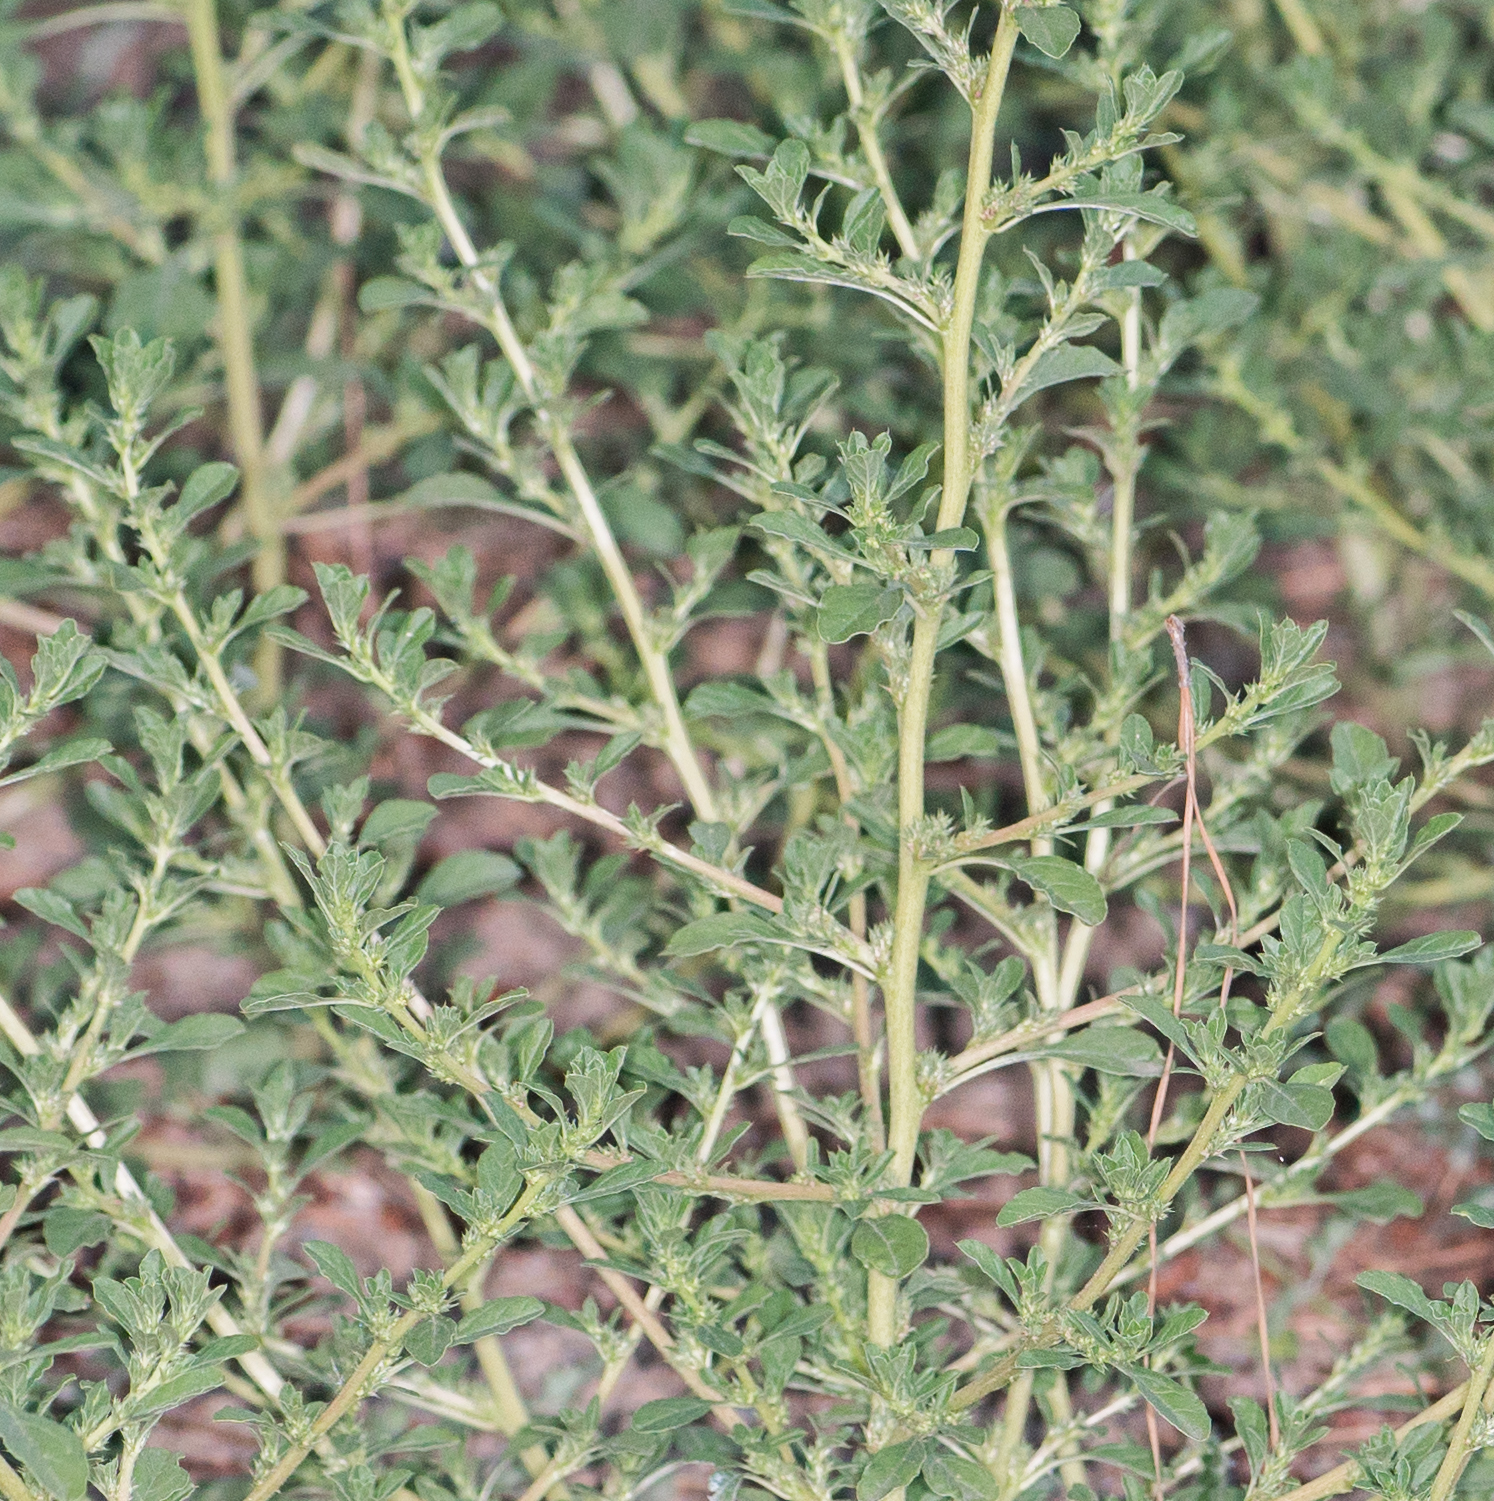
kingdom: Plantae
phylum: Tracheophyta
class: Magnoliopsida
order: Caryophyllales
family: Amaranthaceae
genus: Amaranthus
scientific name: Amaranthus albus
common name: White pigweed
